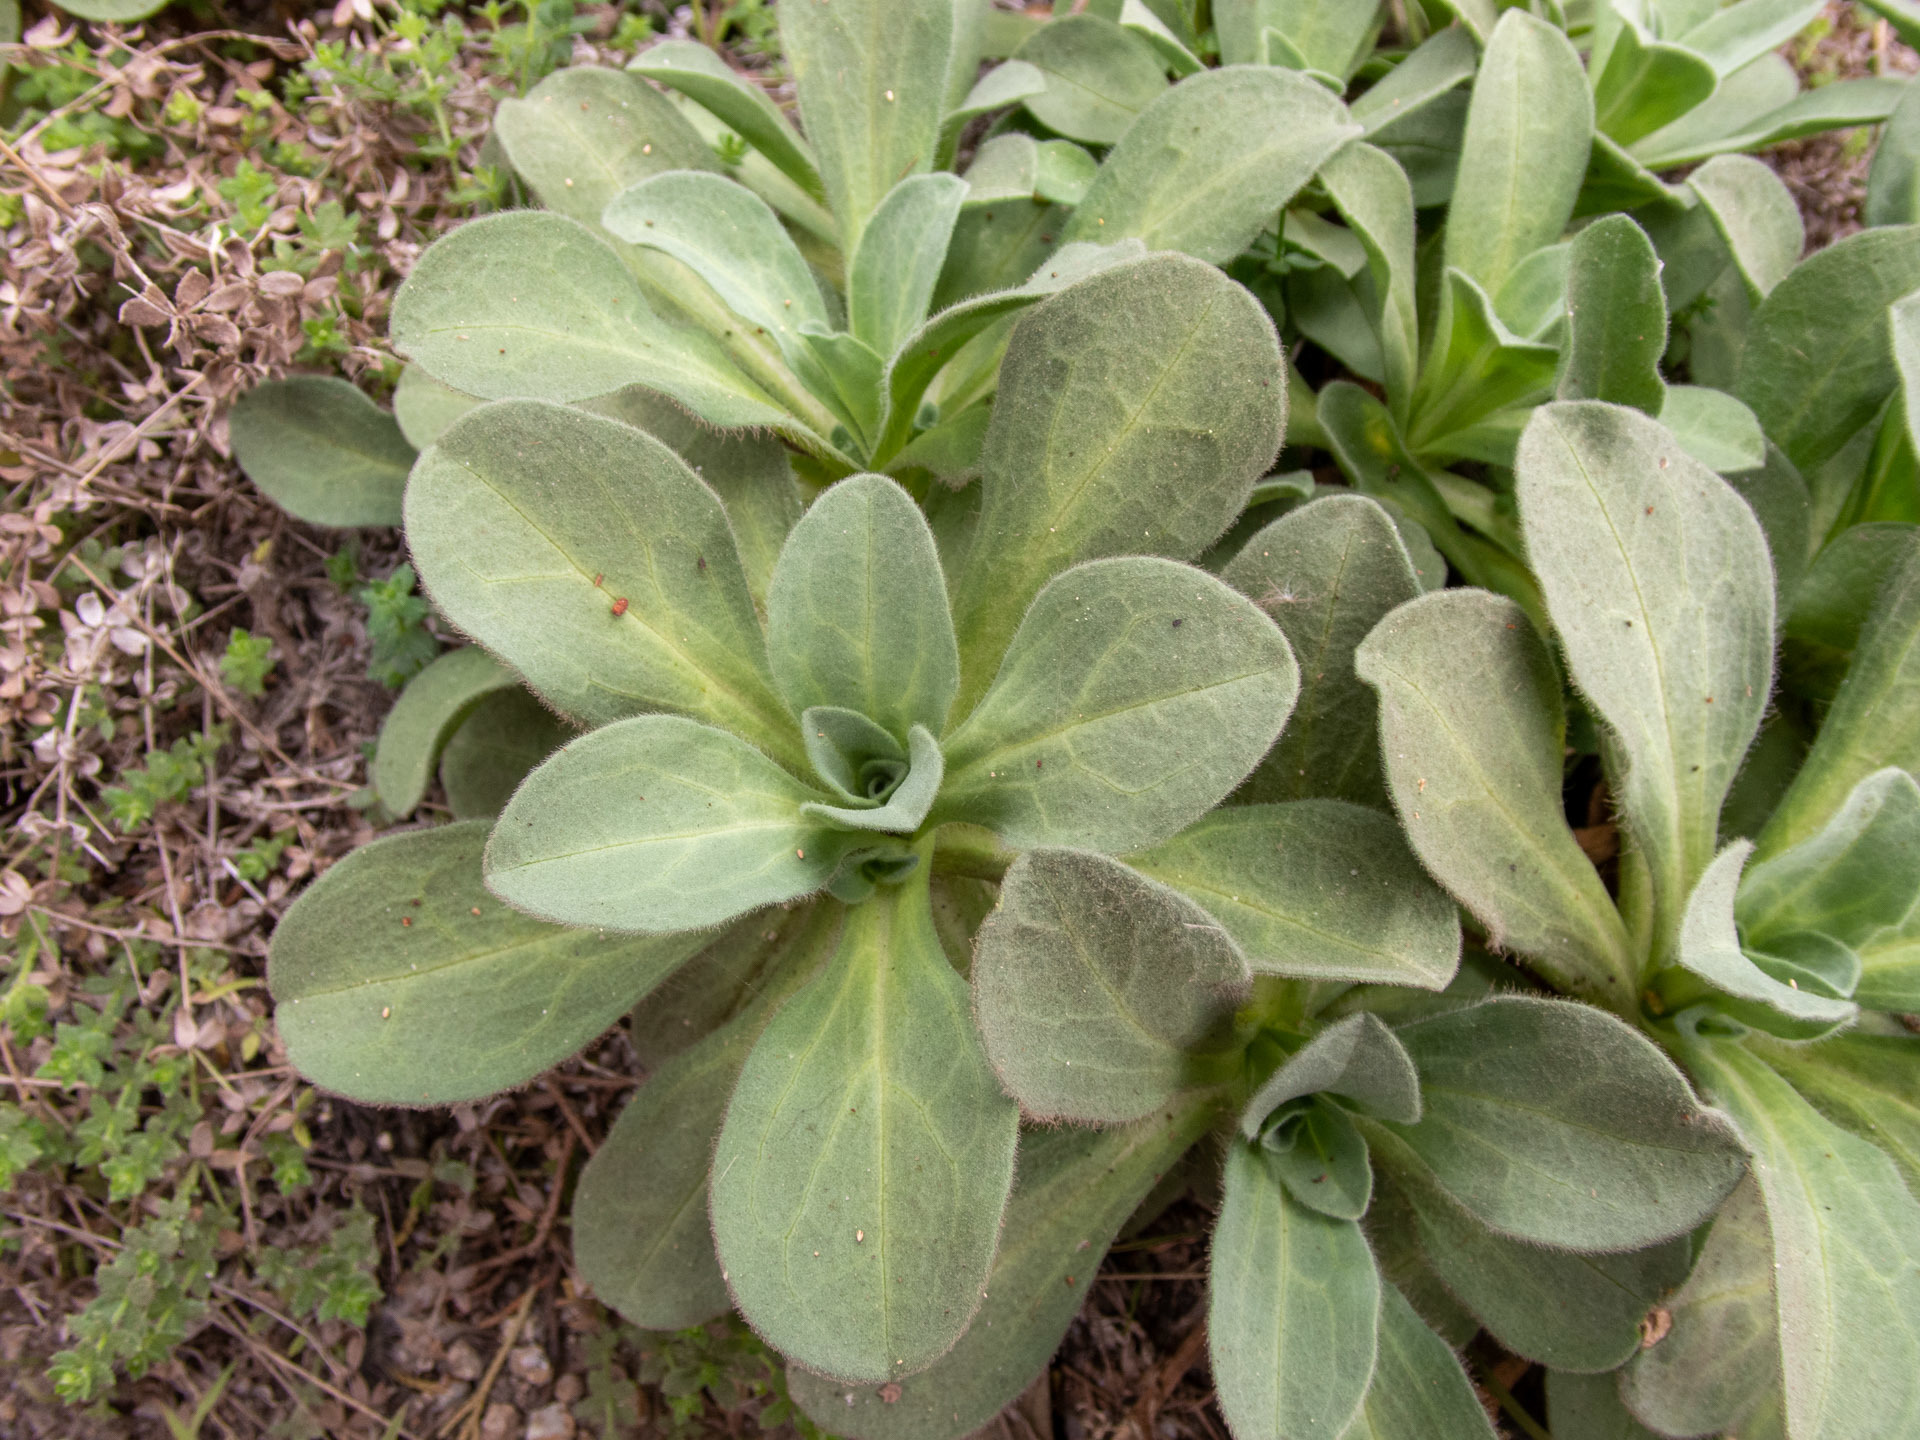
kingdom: Plantae
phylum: Tracheophyta
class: Magnoliopsida
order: Asterales
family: Asteraceae
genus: Erigeron
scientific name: Erigeron glaucus
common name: Seaside daisy
